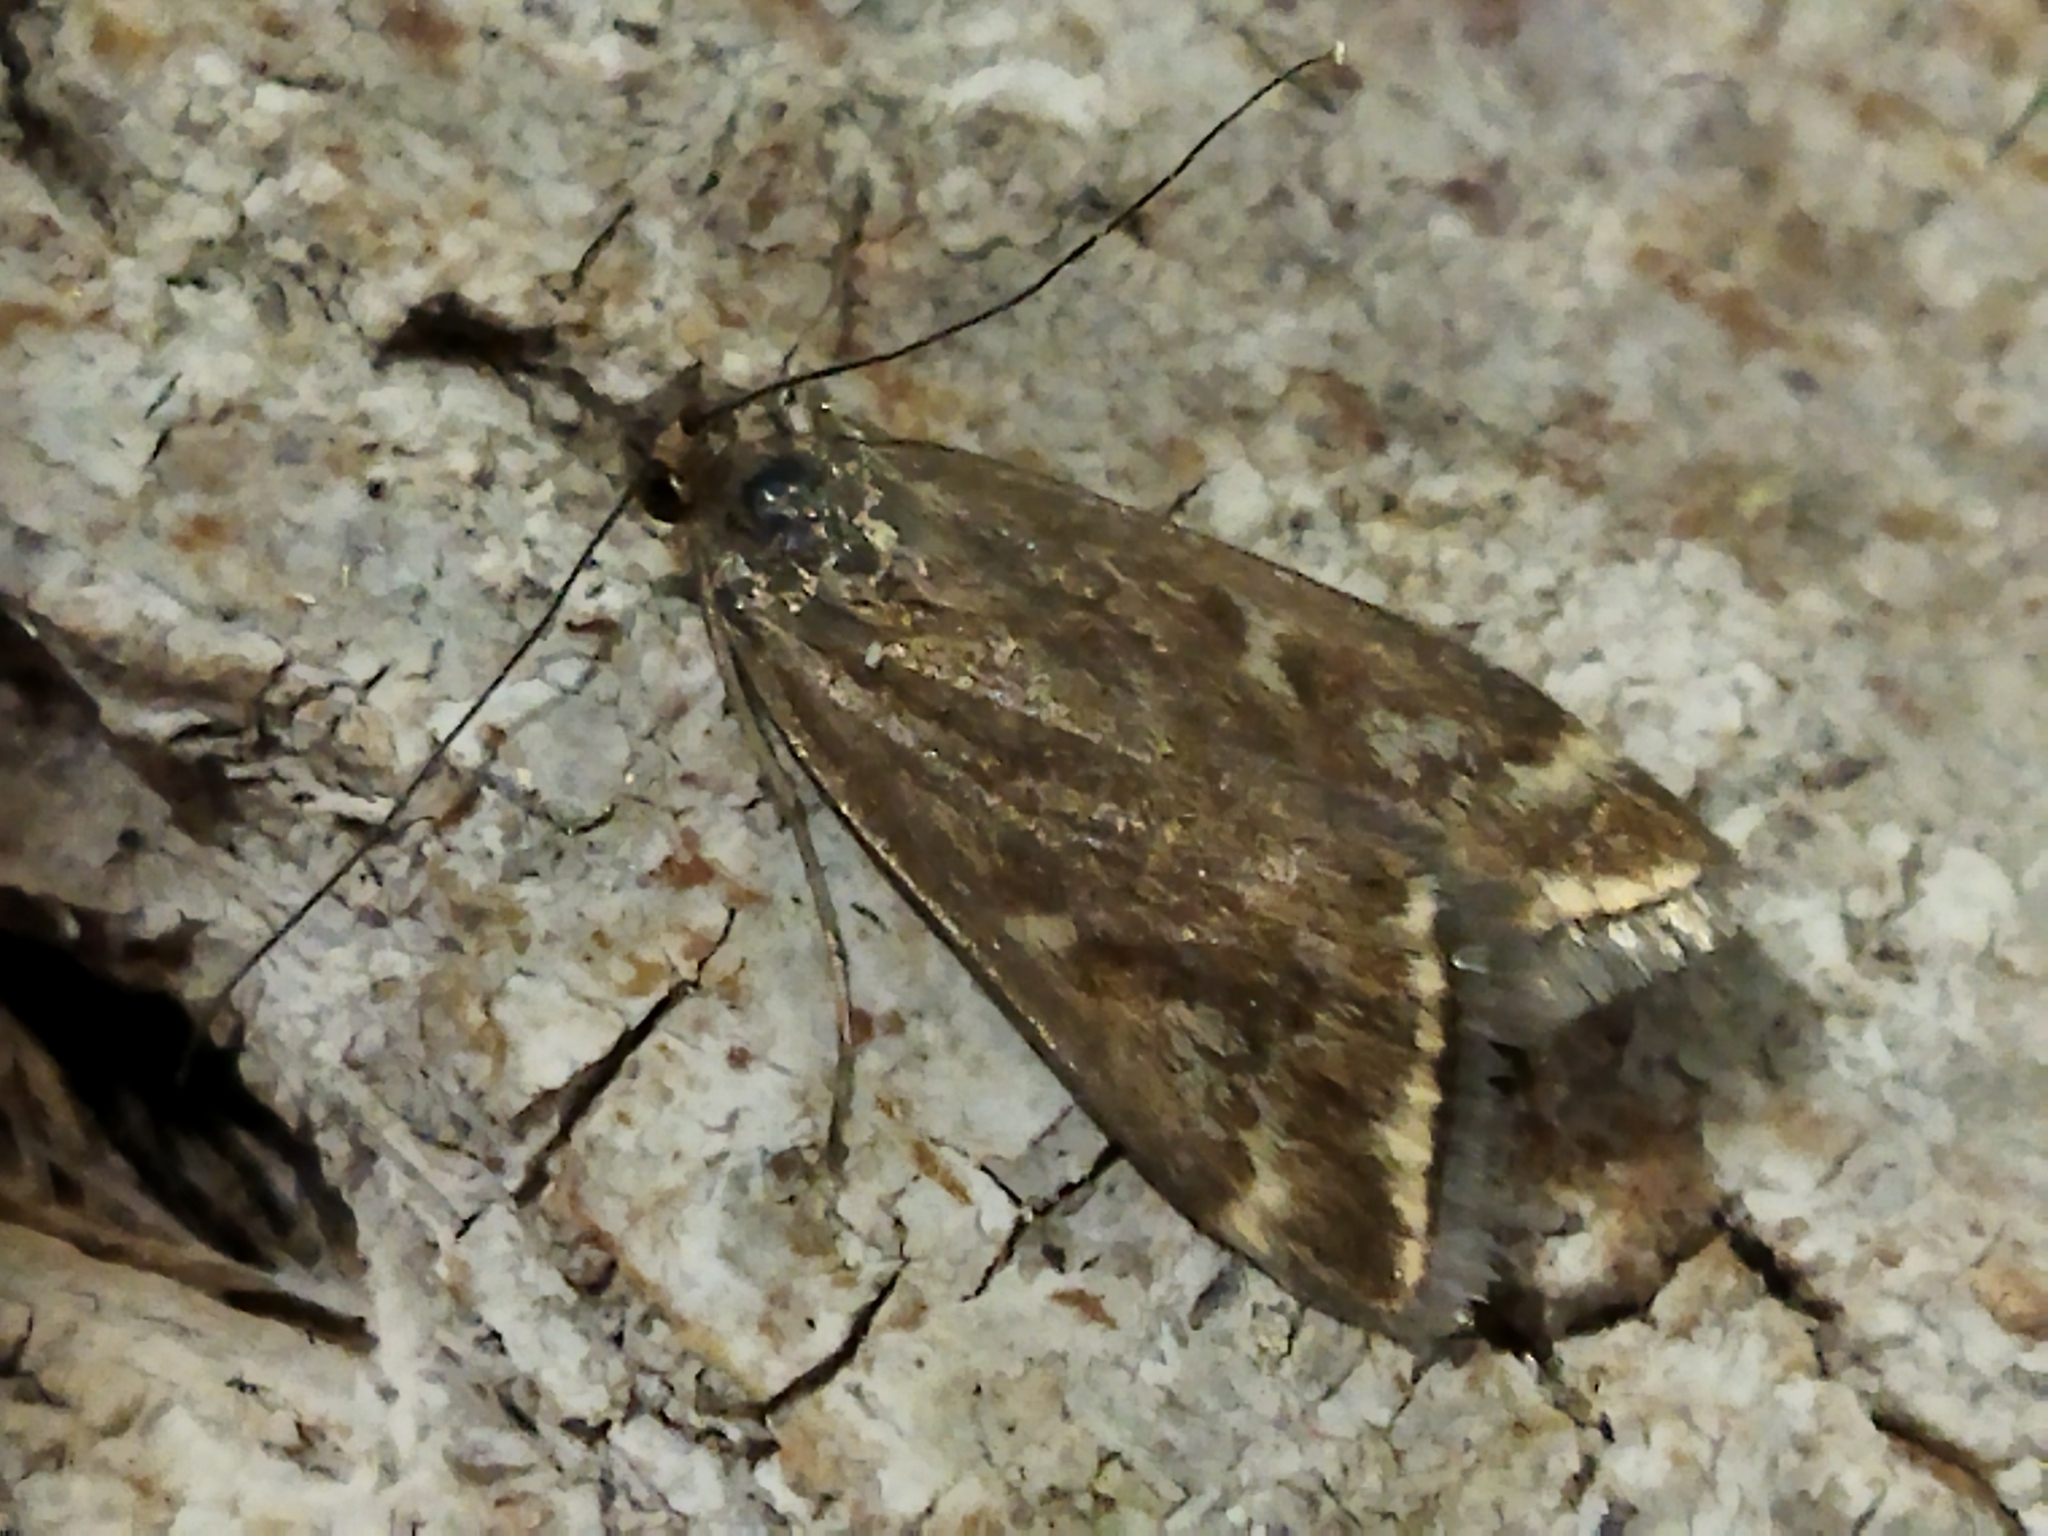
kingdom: Animalia
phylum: Arthropoda
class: Insecta
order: Lepidoptera
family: Crambidae
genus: Loxostege
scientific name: Loxostege sticticalis
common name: Crambid moth
